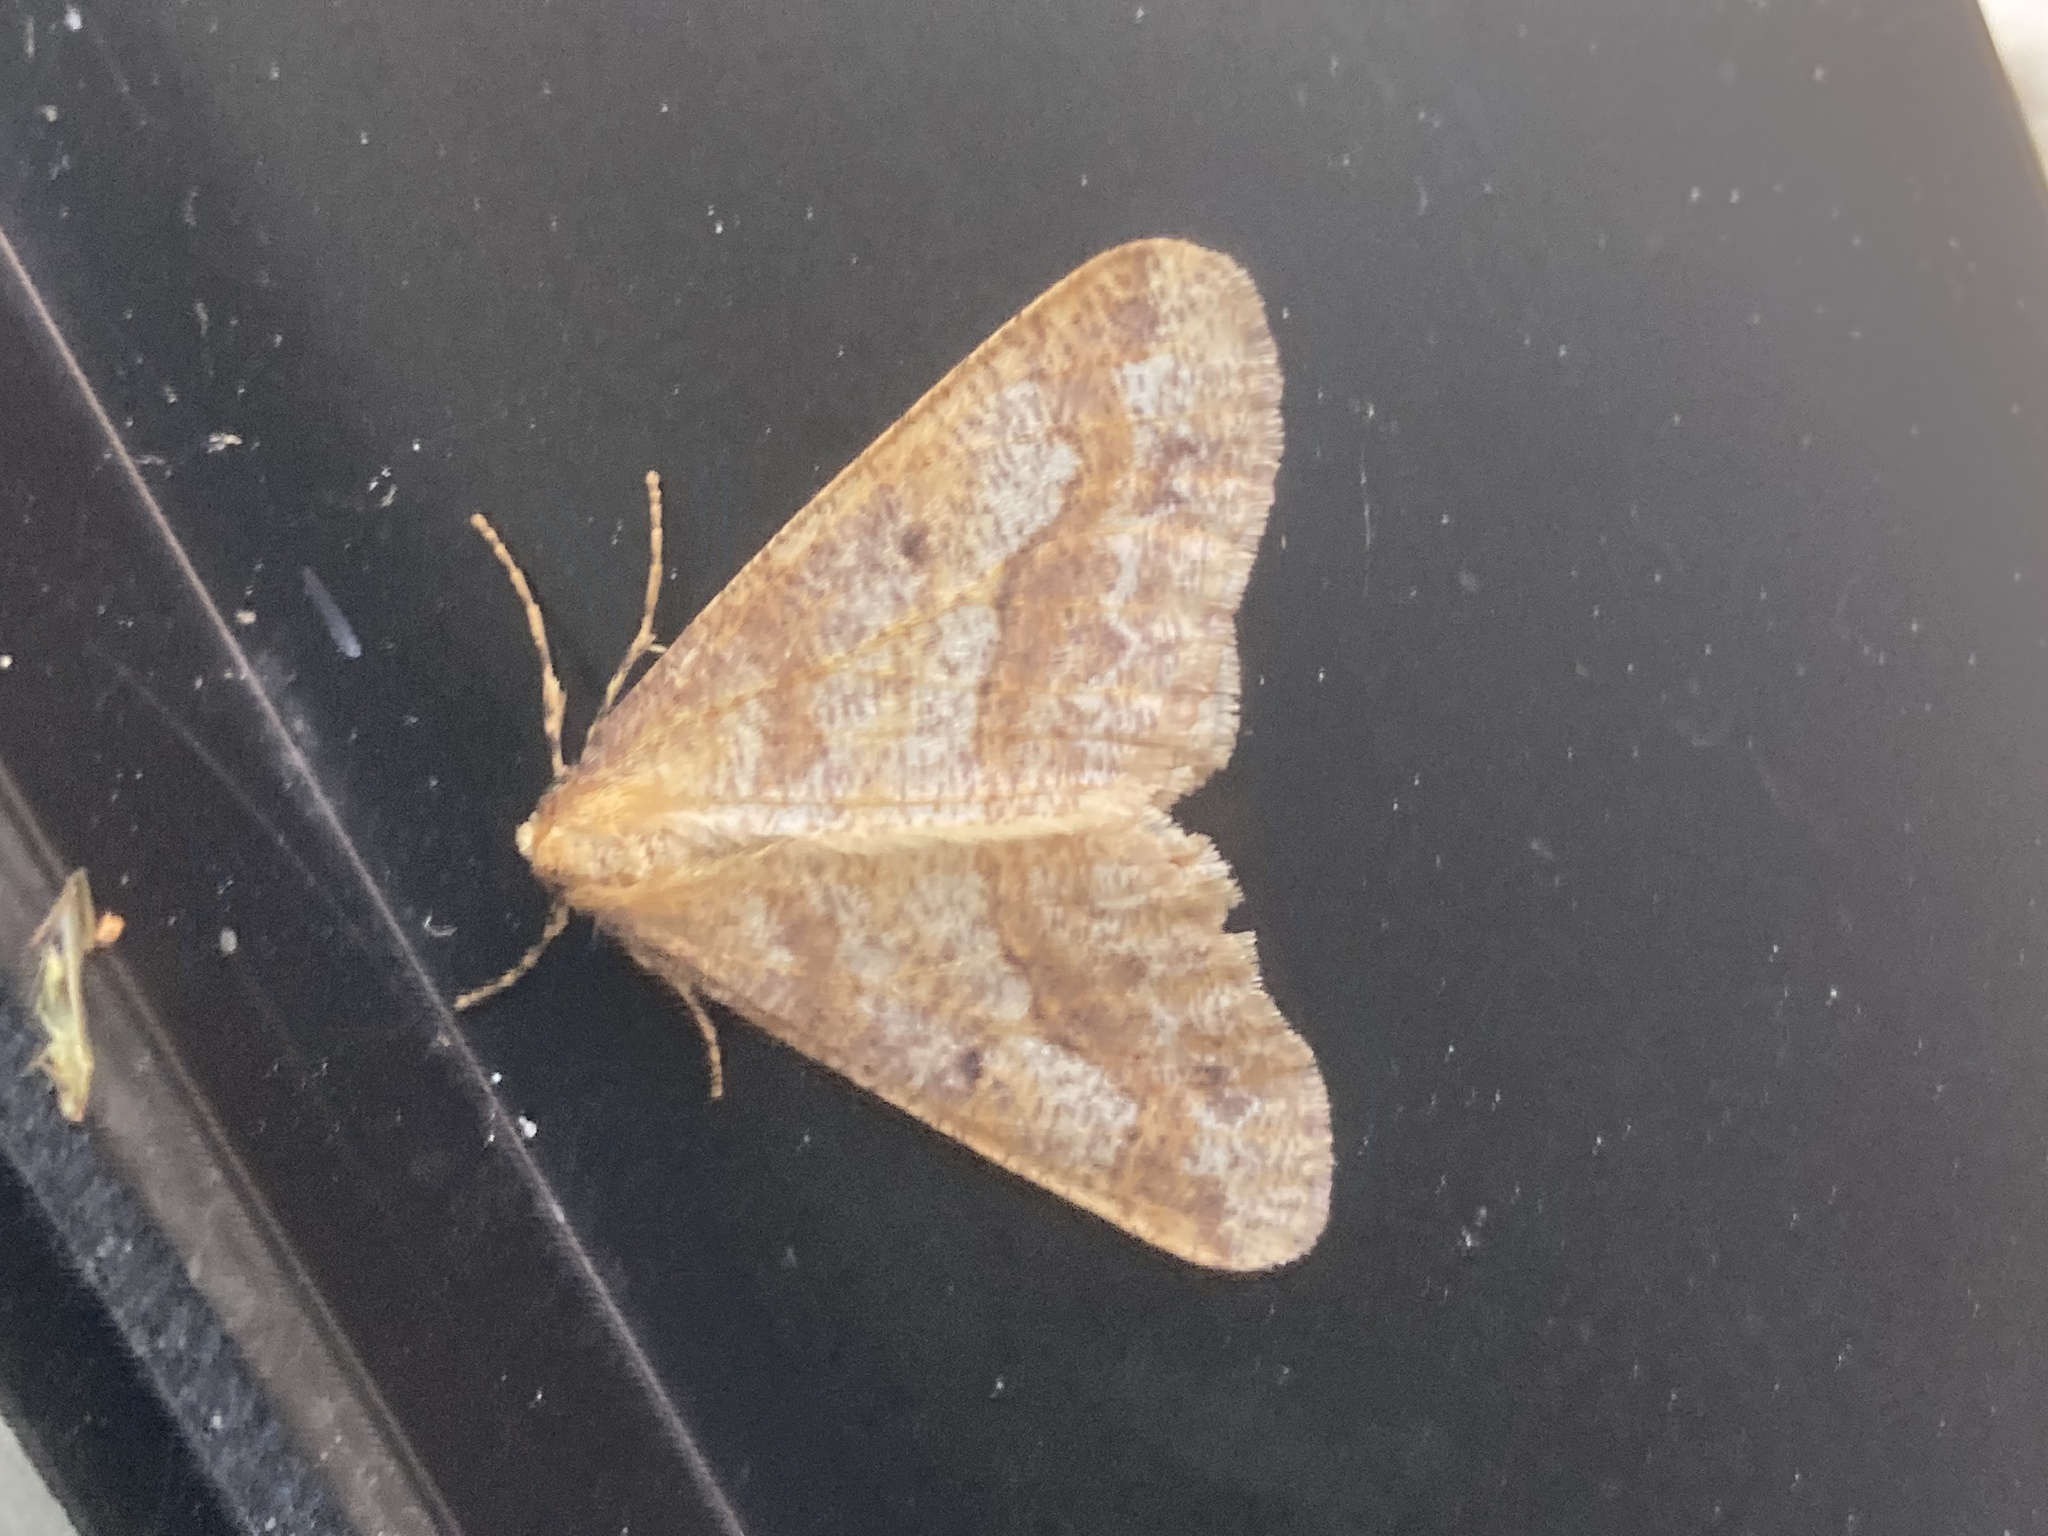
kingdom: Animalia
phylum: Arthropoda
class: Insecta
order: Lepidoptera
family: Geometridae
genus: Erannis
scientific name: Erannis tiliaria
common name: Linden looper
